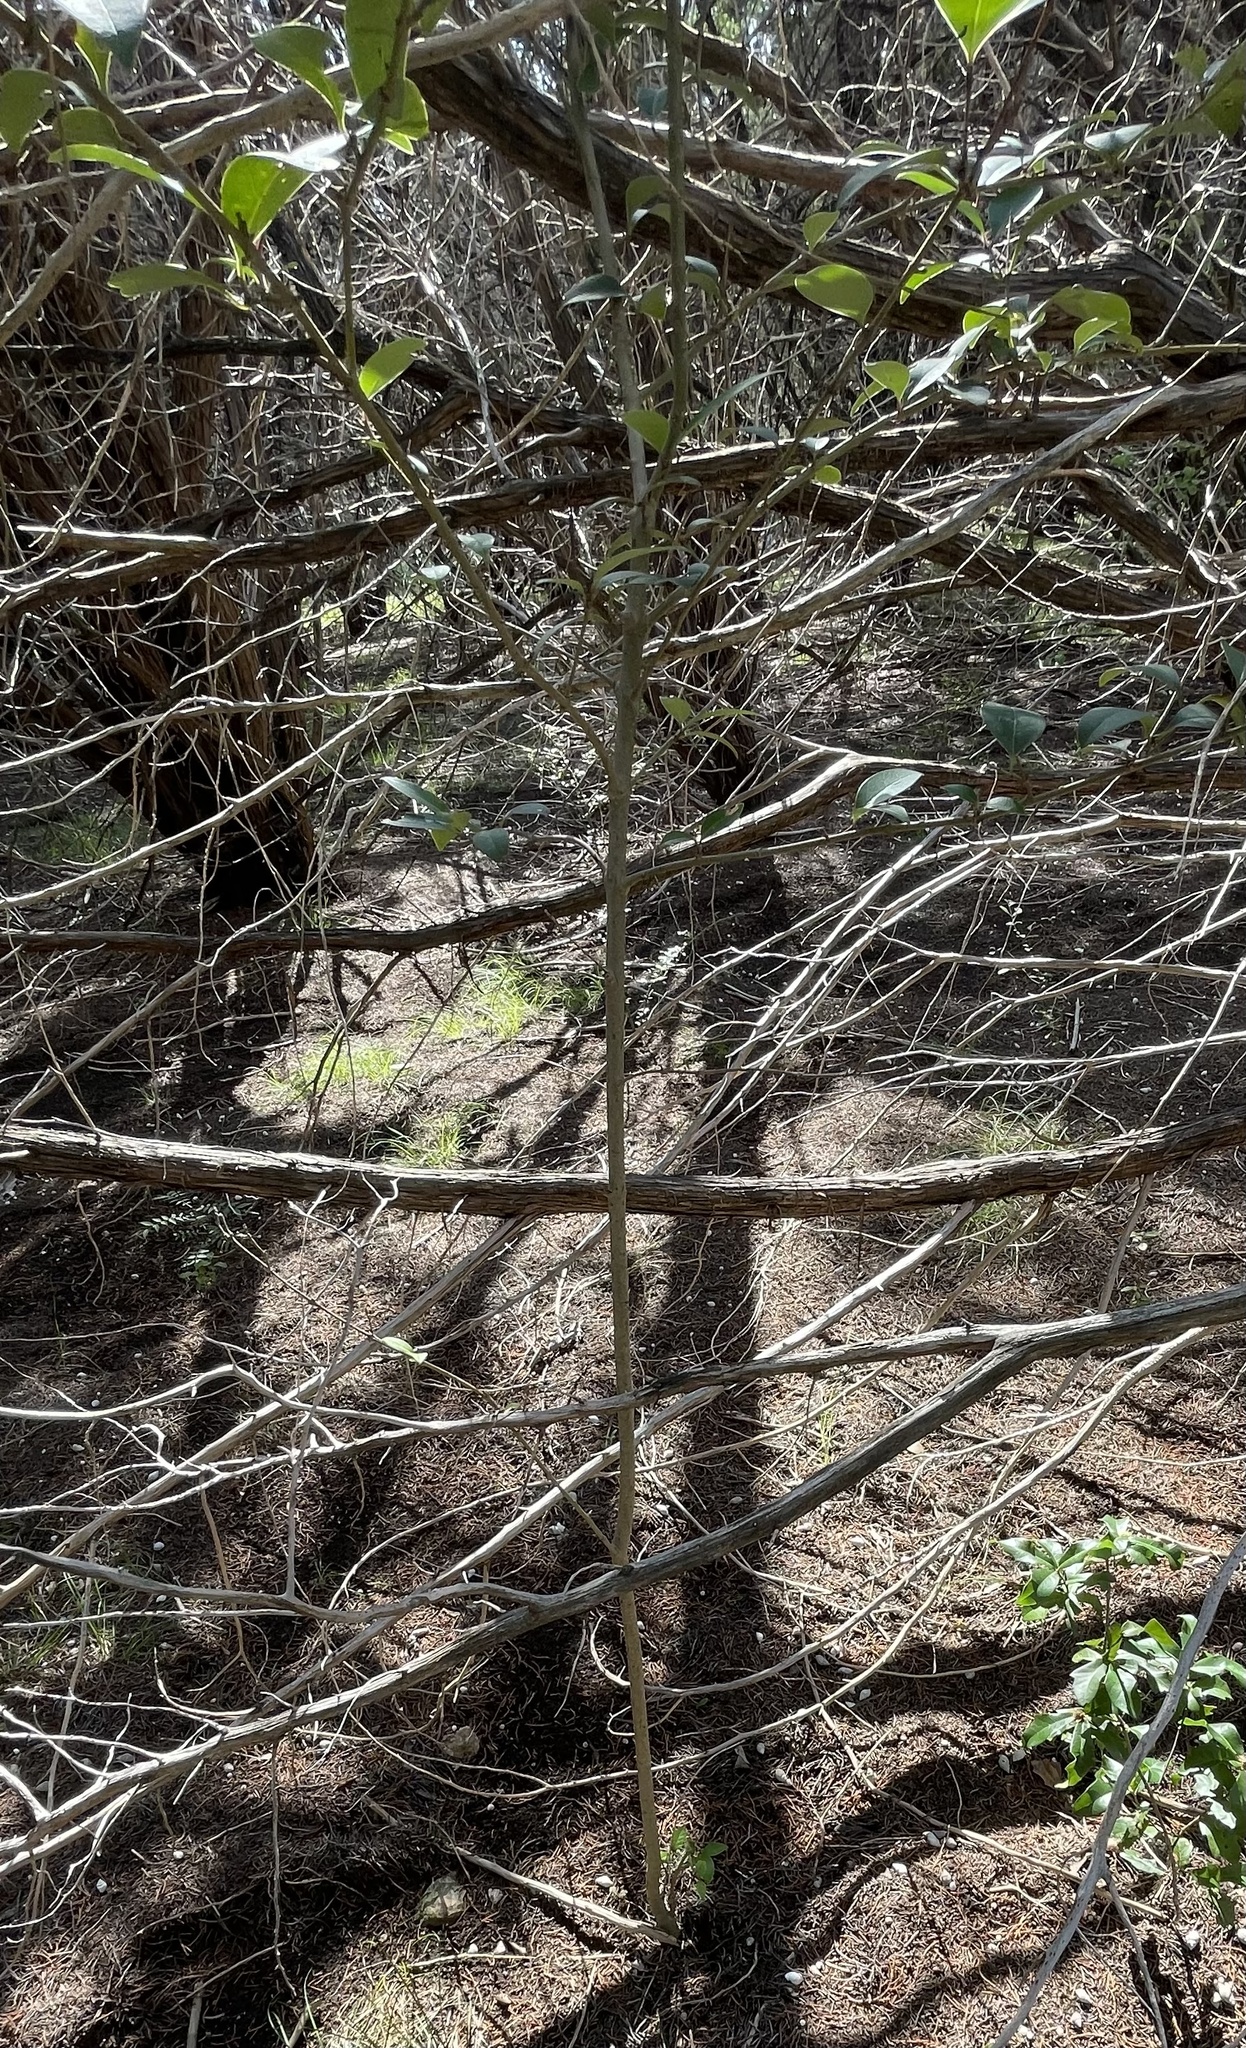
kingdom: Plantae
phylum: Tracheophyta
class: Magnoliopsida
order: Lamiales
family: Oleaceae
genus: Ligustrum
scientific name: Ligustrum lucidum
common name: Glossy privet
